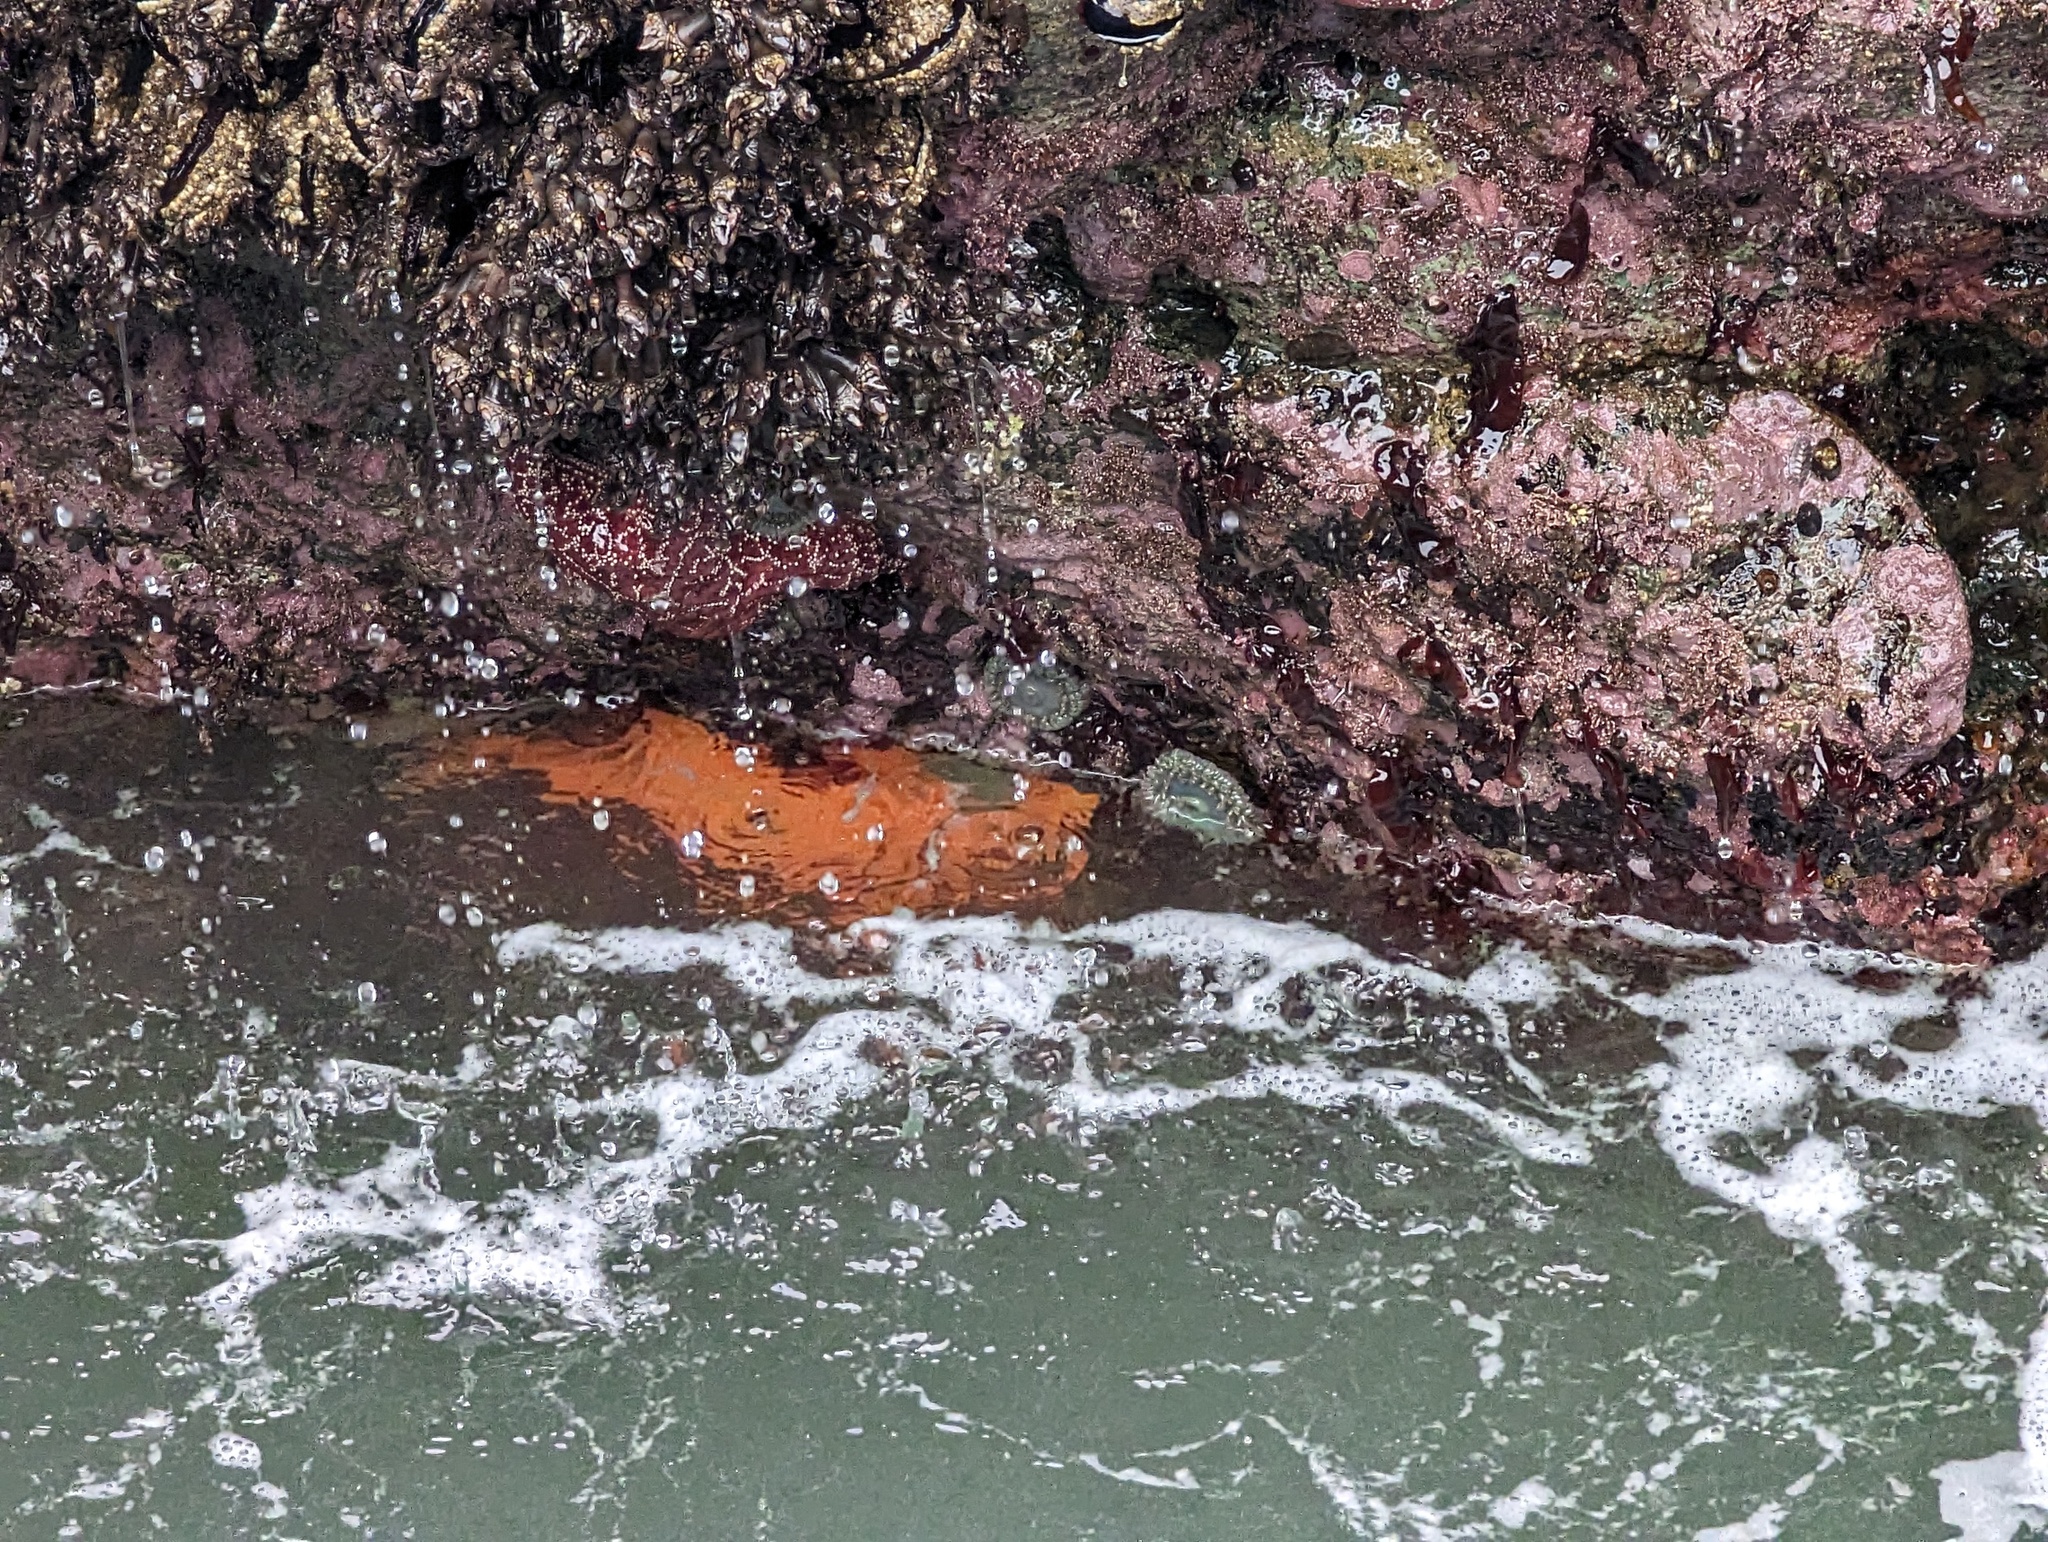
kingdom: Animalia
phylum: Echinodermata
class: Asteroidea
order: Forcipulatida
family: Asteriidae
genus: Pisaster
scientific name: Pisaster ochraceus
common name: Ochre stars
